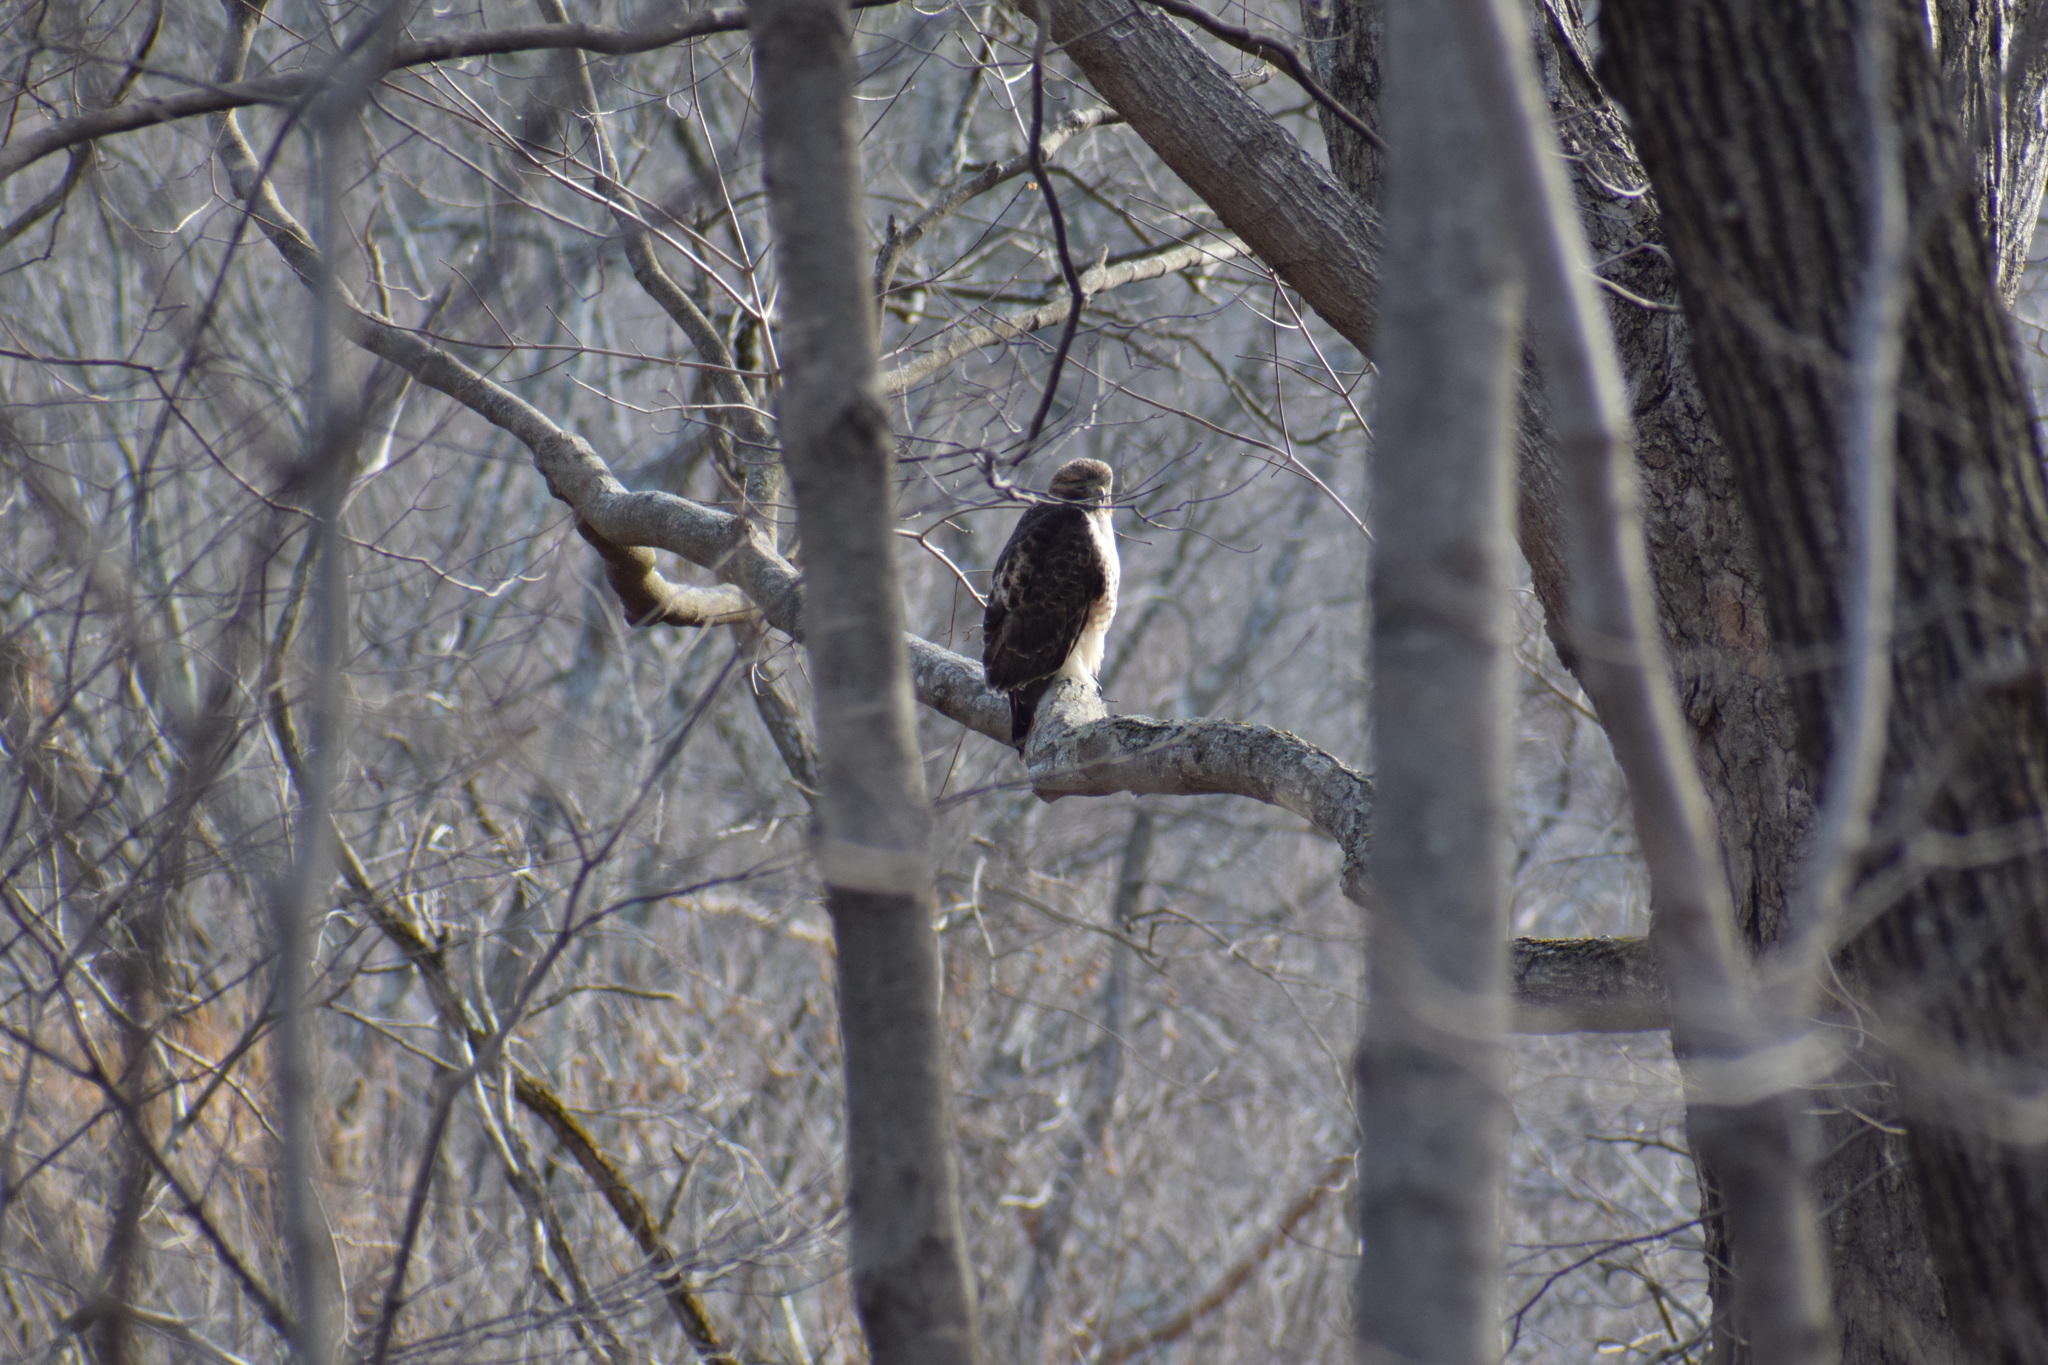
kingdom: Animalia
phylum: Chordata
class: Aves
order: Accipitriformes
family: Accipitridae
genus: Buteo
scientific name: Buteo jamaicensis
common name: Red-tailed hawk
